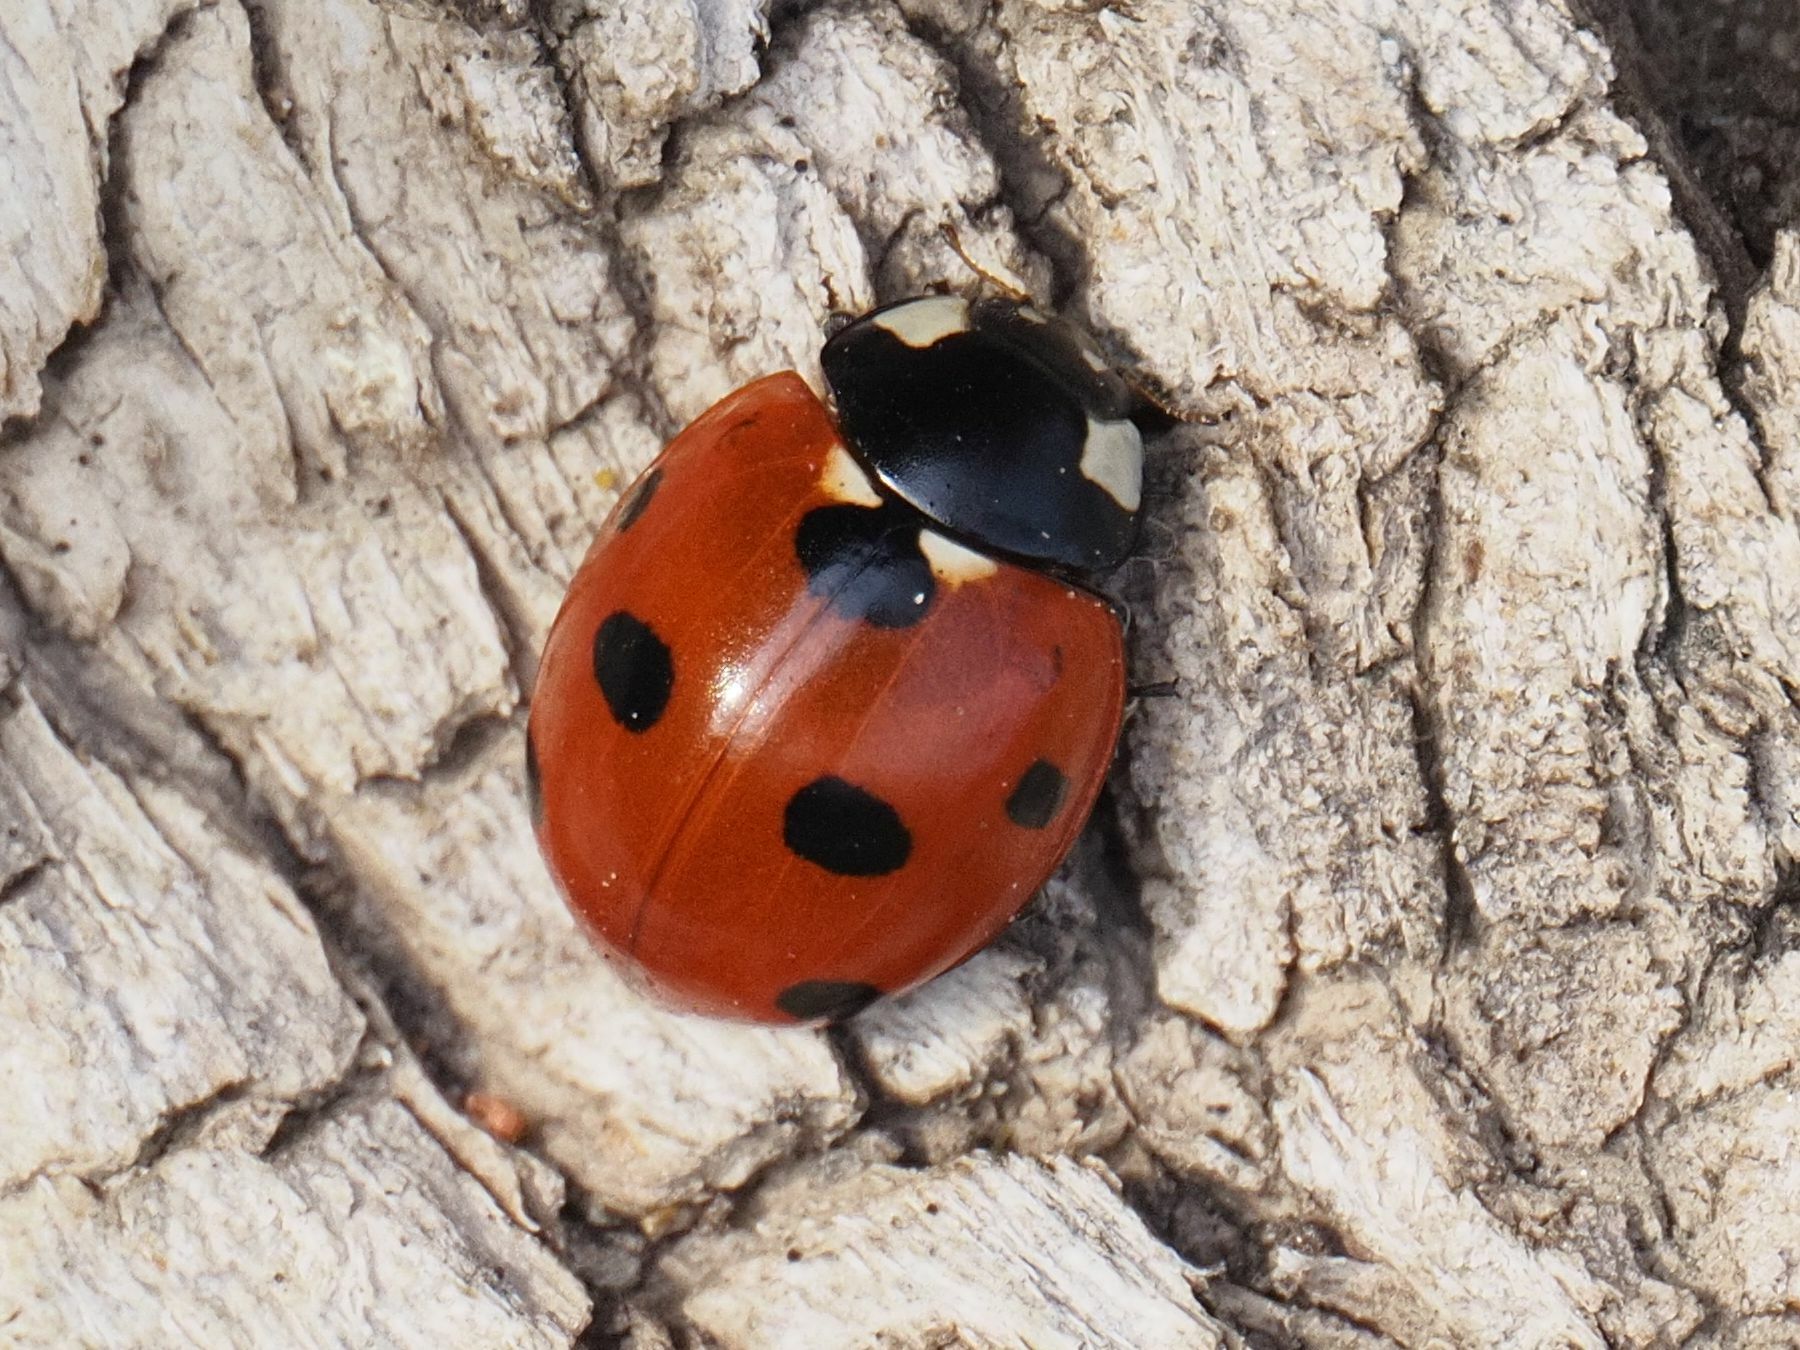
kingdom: Animalia
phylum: Arthropoda
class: Insecta
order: Coleoptera
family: Coccinellidae
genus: Coccinella
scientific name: Coccinella septempunctata
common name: Sevenspotted lady beetle
